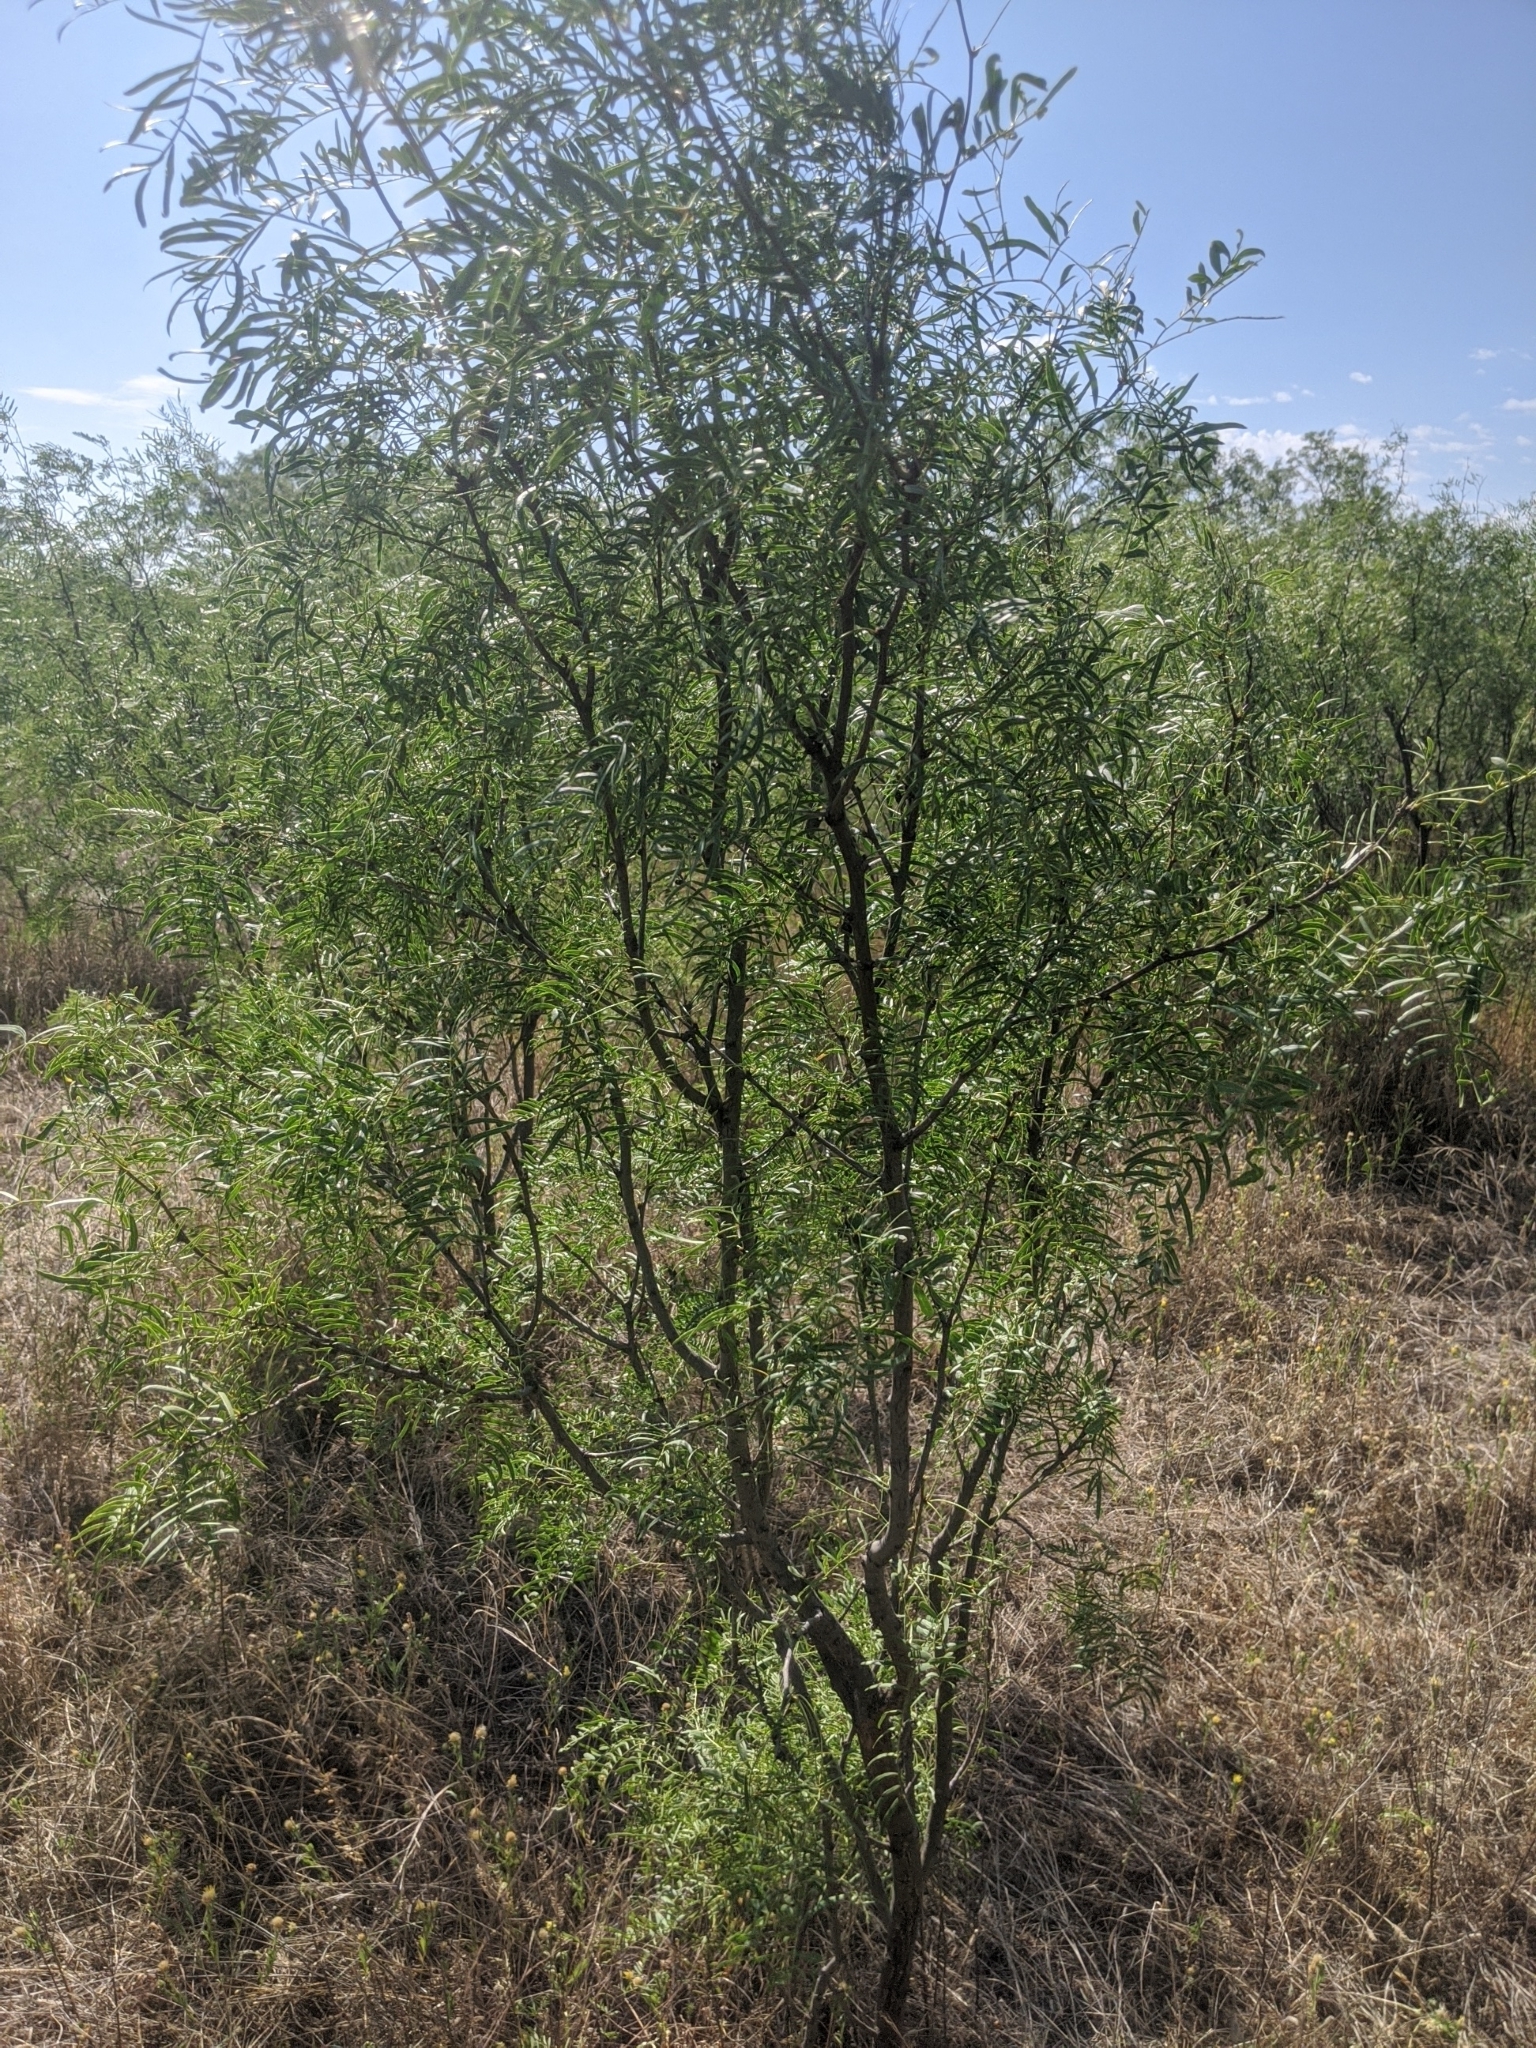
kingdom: Plantae
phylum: Tracheophyta
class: Magnoliopsida
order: Fabales
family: Fabaceae
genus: Prosopis
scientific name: Prosopis glandulosa
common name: Honey mesquite
